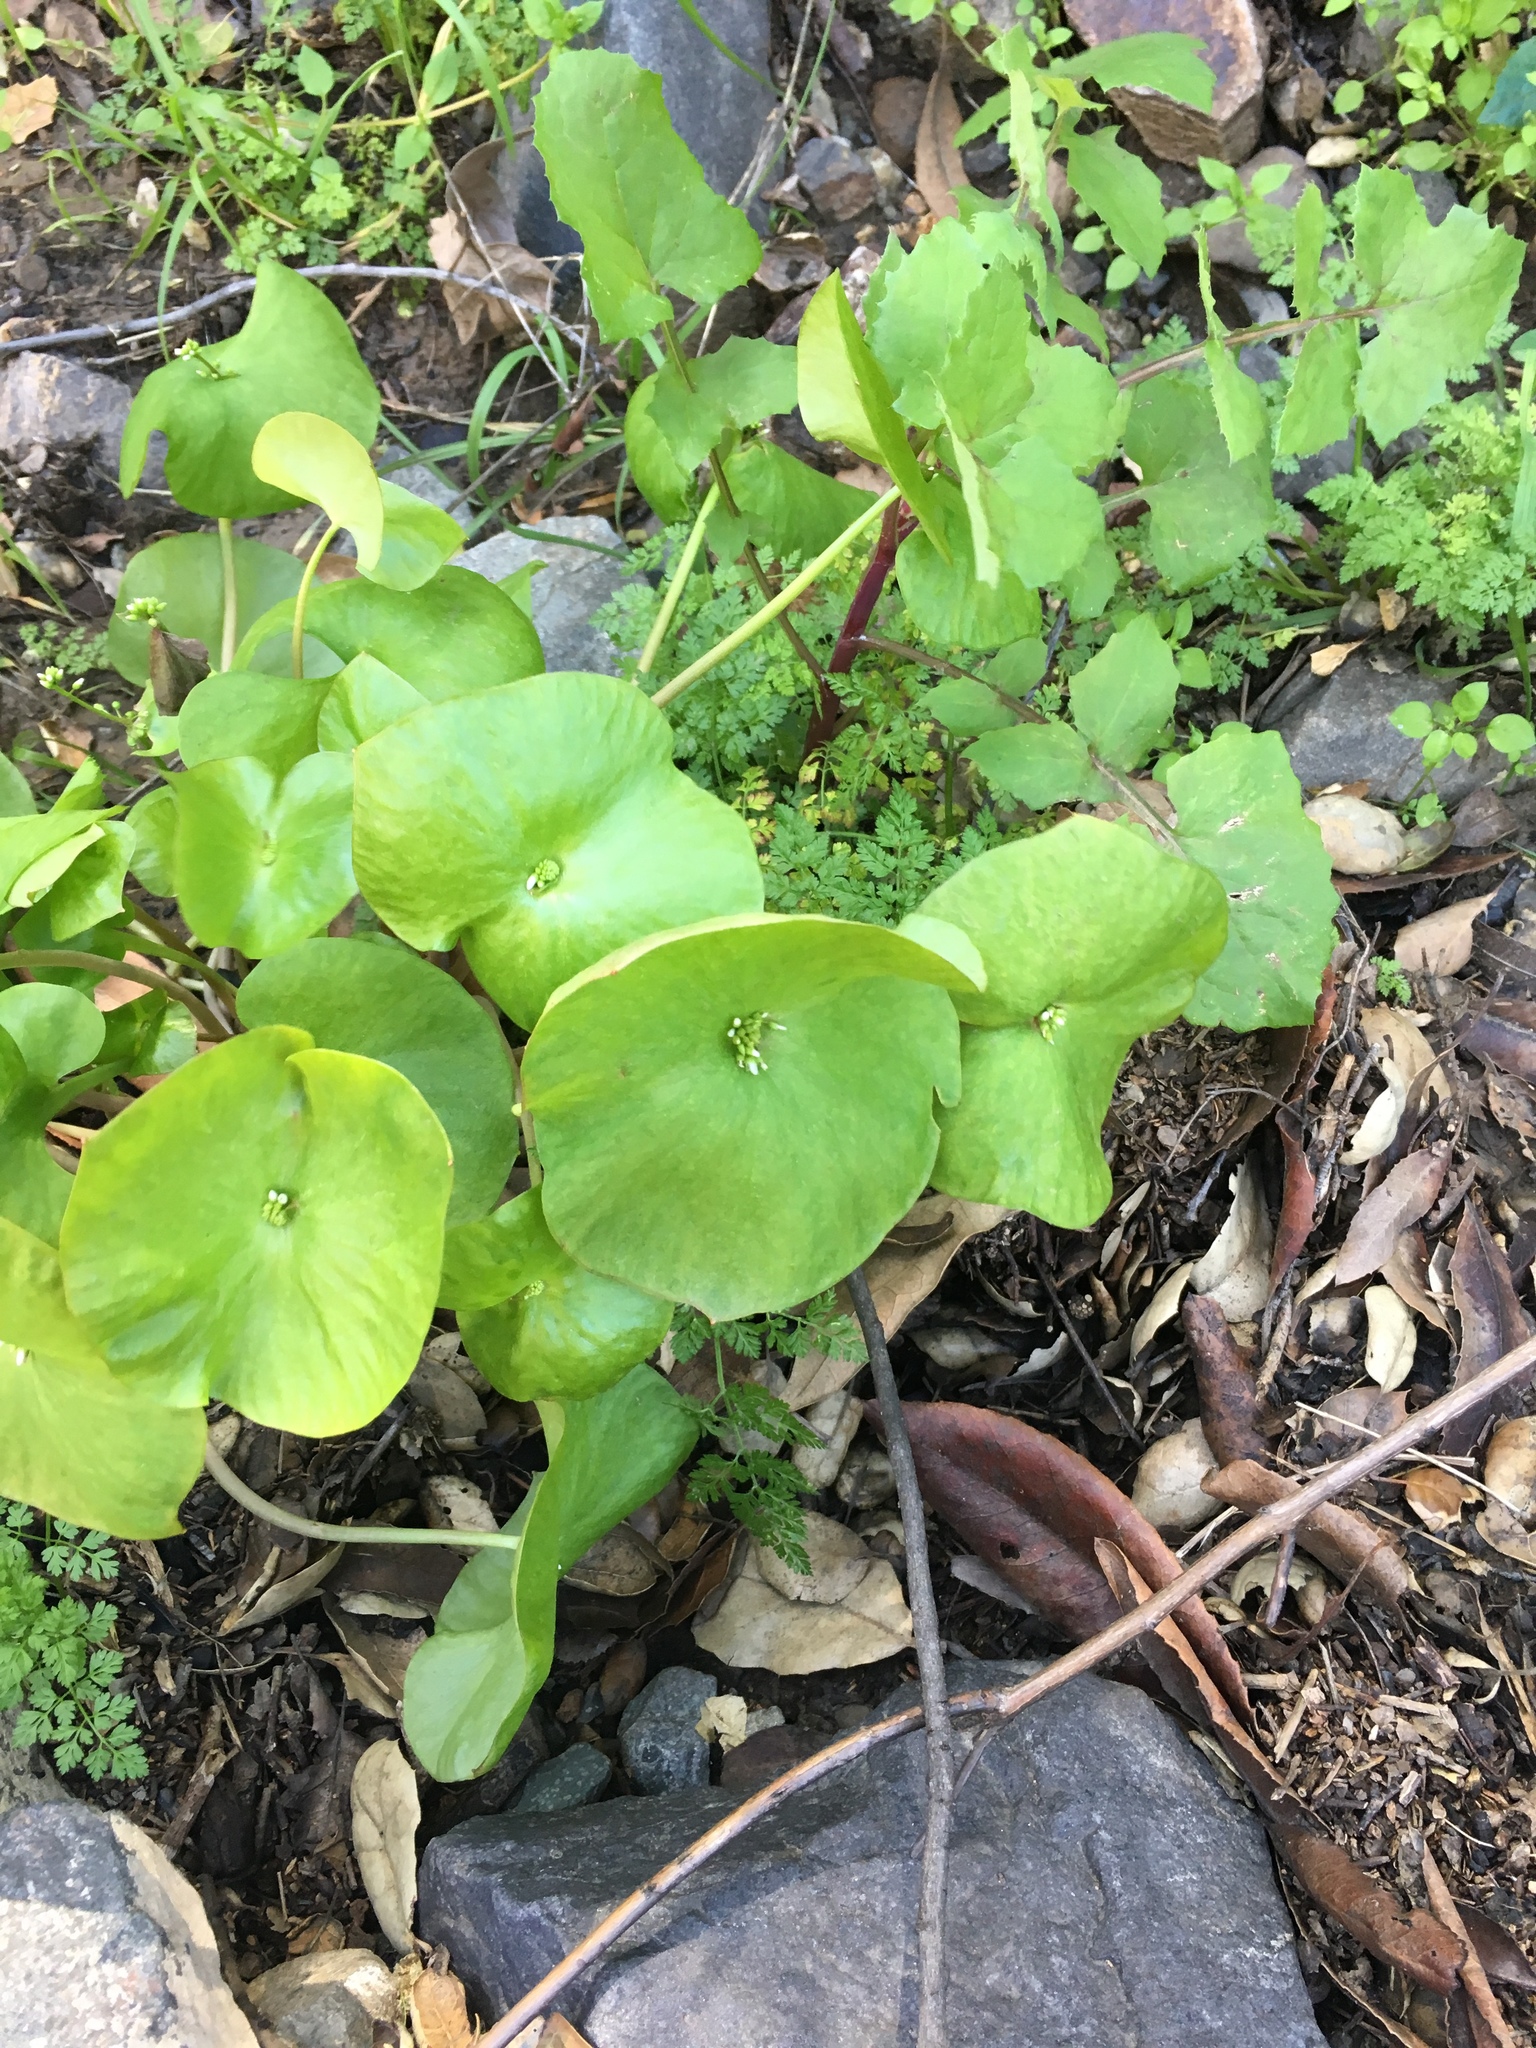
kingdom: Plantae
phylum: Tracheophyta
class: Magnoliopsida
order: Caryophyllales
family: Montiaceae
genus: Claytonia
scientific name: Claytonia perfoliata
